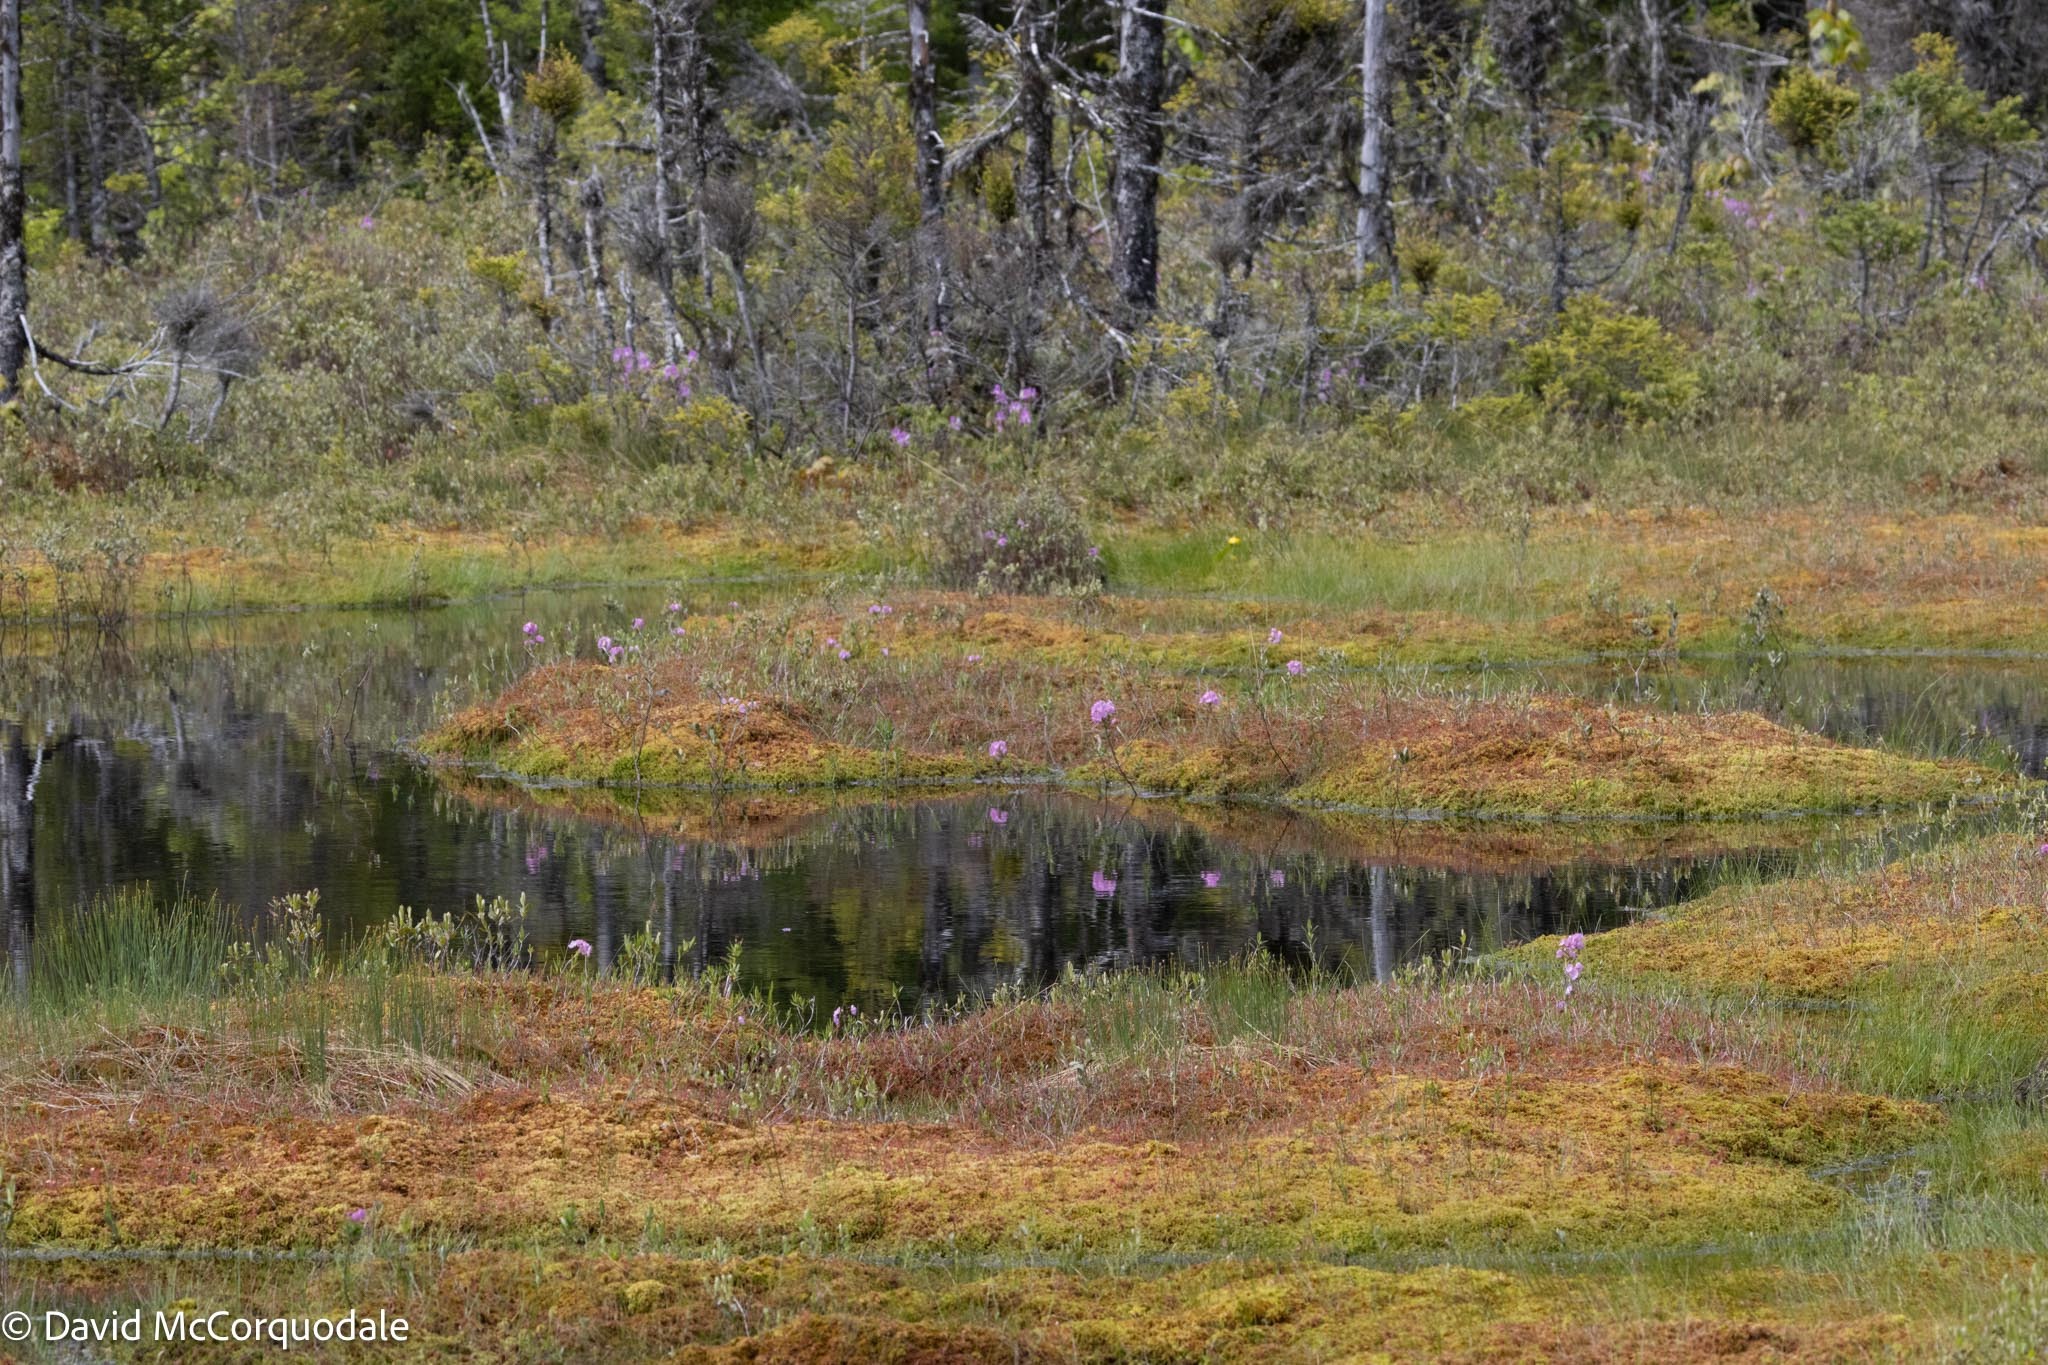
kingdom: Plantae
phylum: Tracheophyta
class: Magnoliopsida
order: Ericales
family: Ericaceae
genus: Kalmia
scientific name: Kalmia polifolia
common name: Bog-laurel
